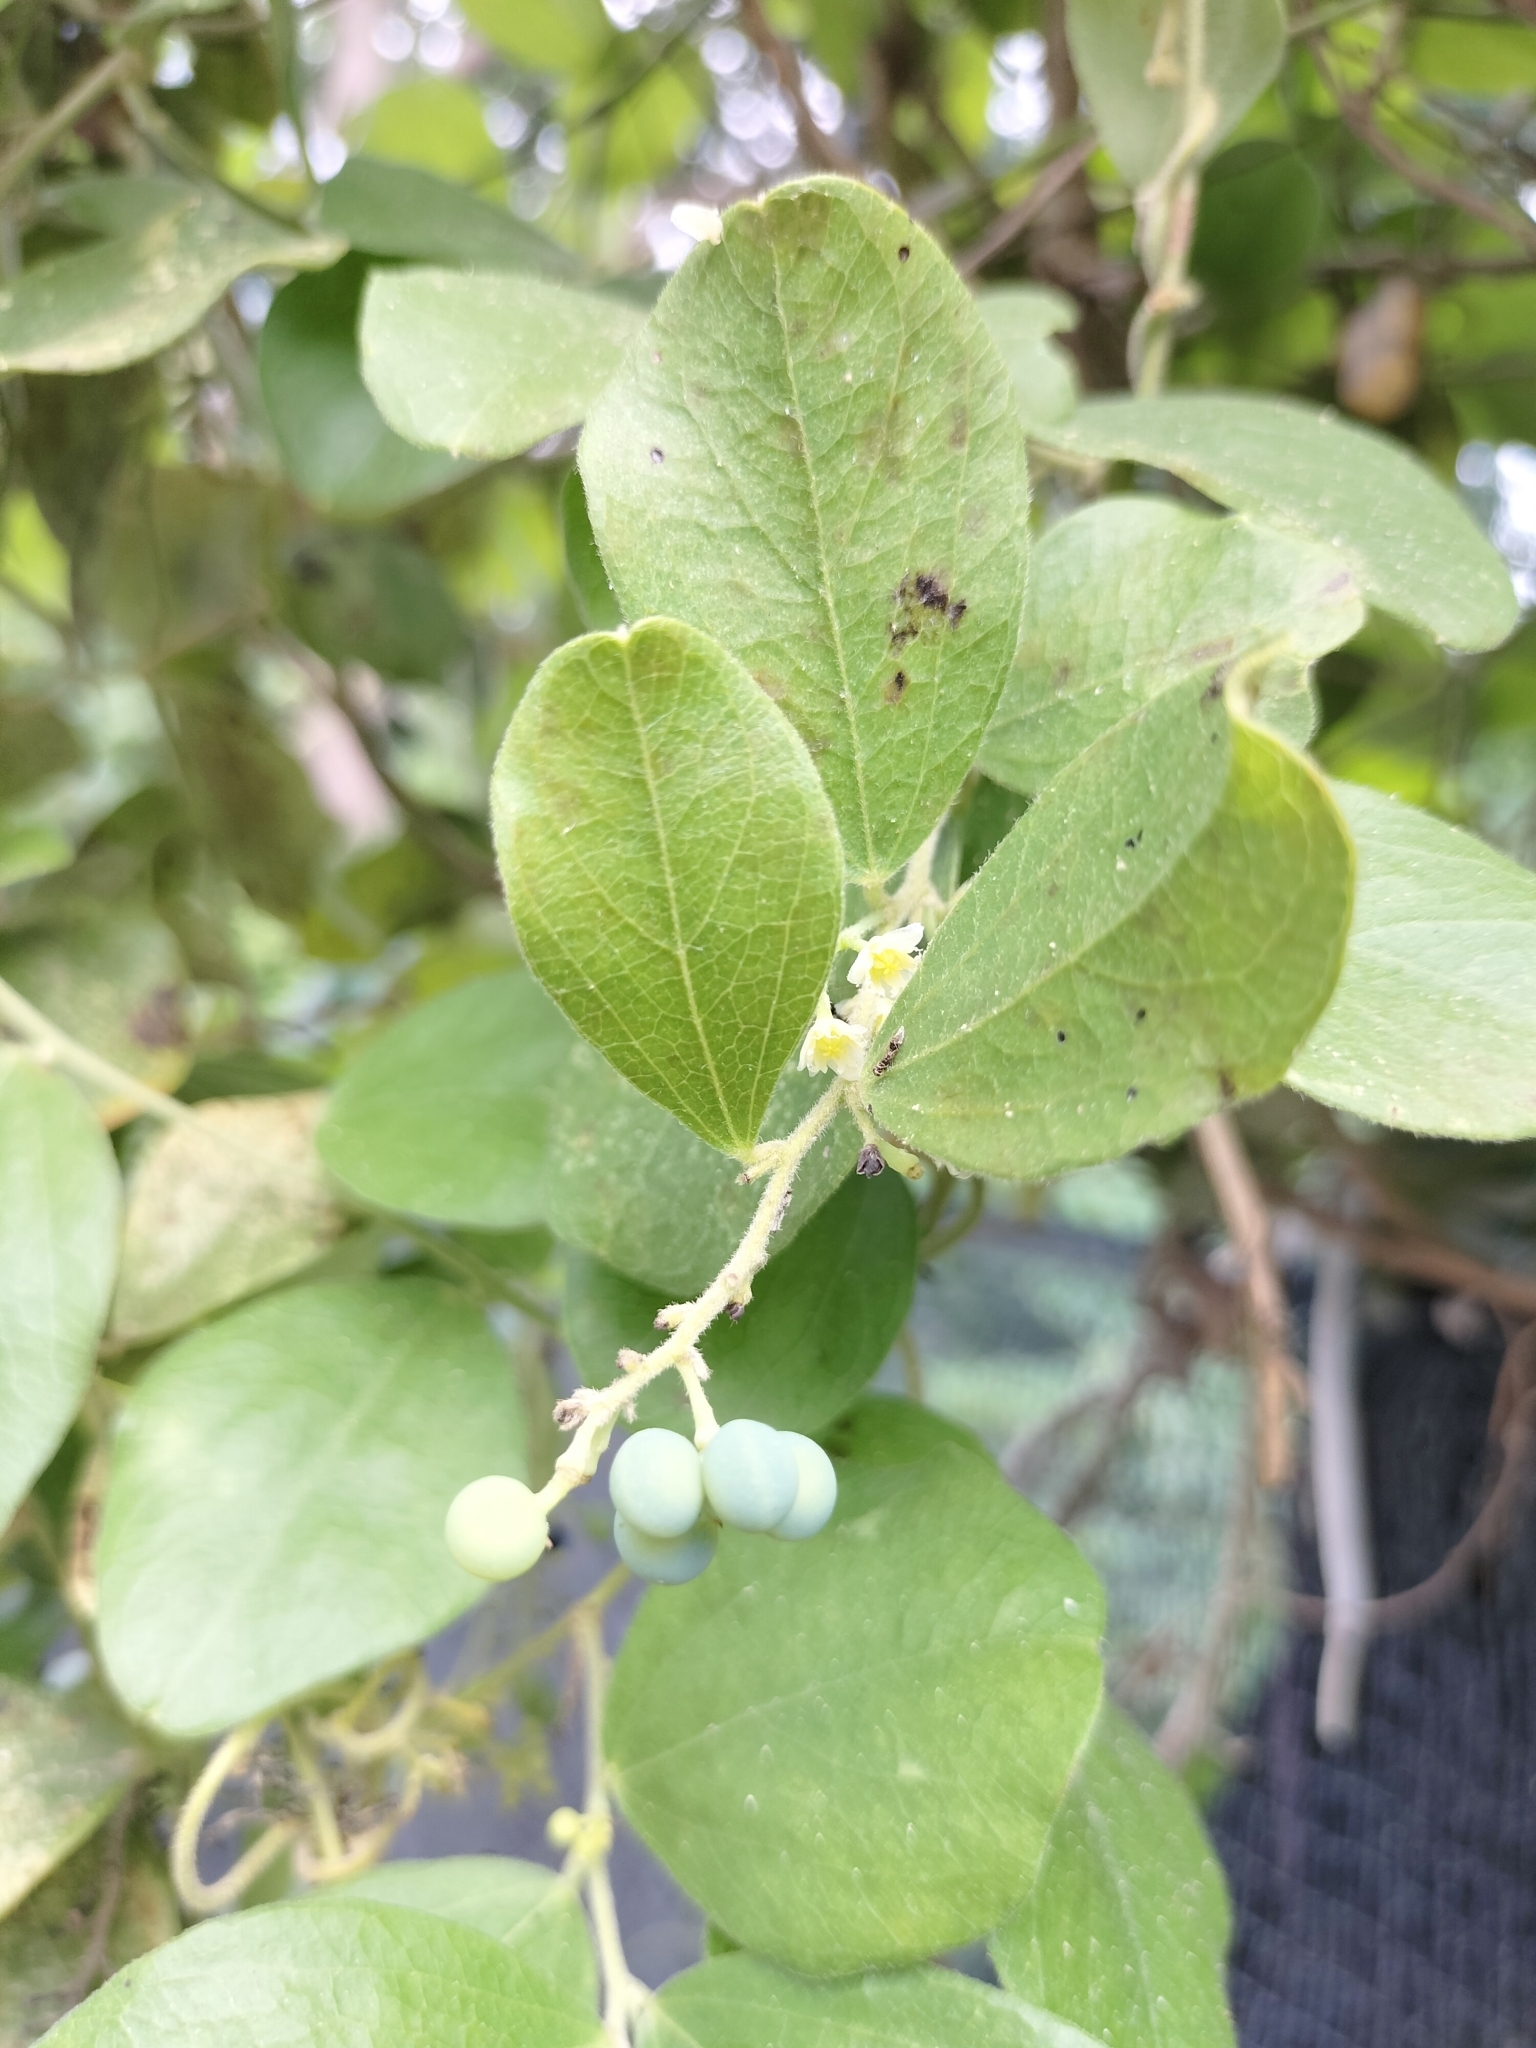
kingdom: Plantae
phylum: Tracheophyta
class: Magnoliopsida
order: Ranunculales
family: Menispermaceae
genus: Cocculus
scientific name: Cocculus orbiculatus
